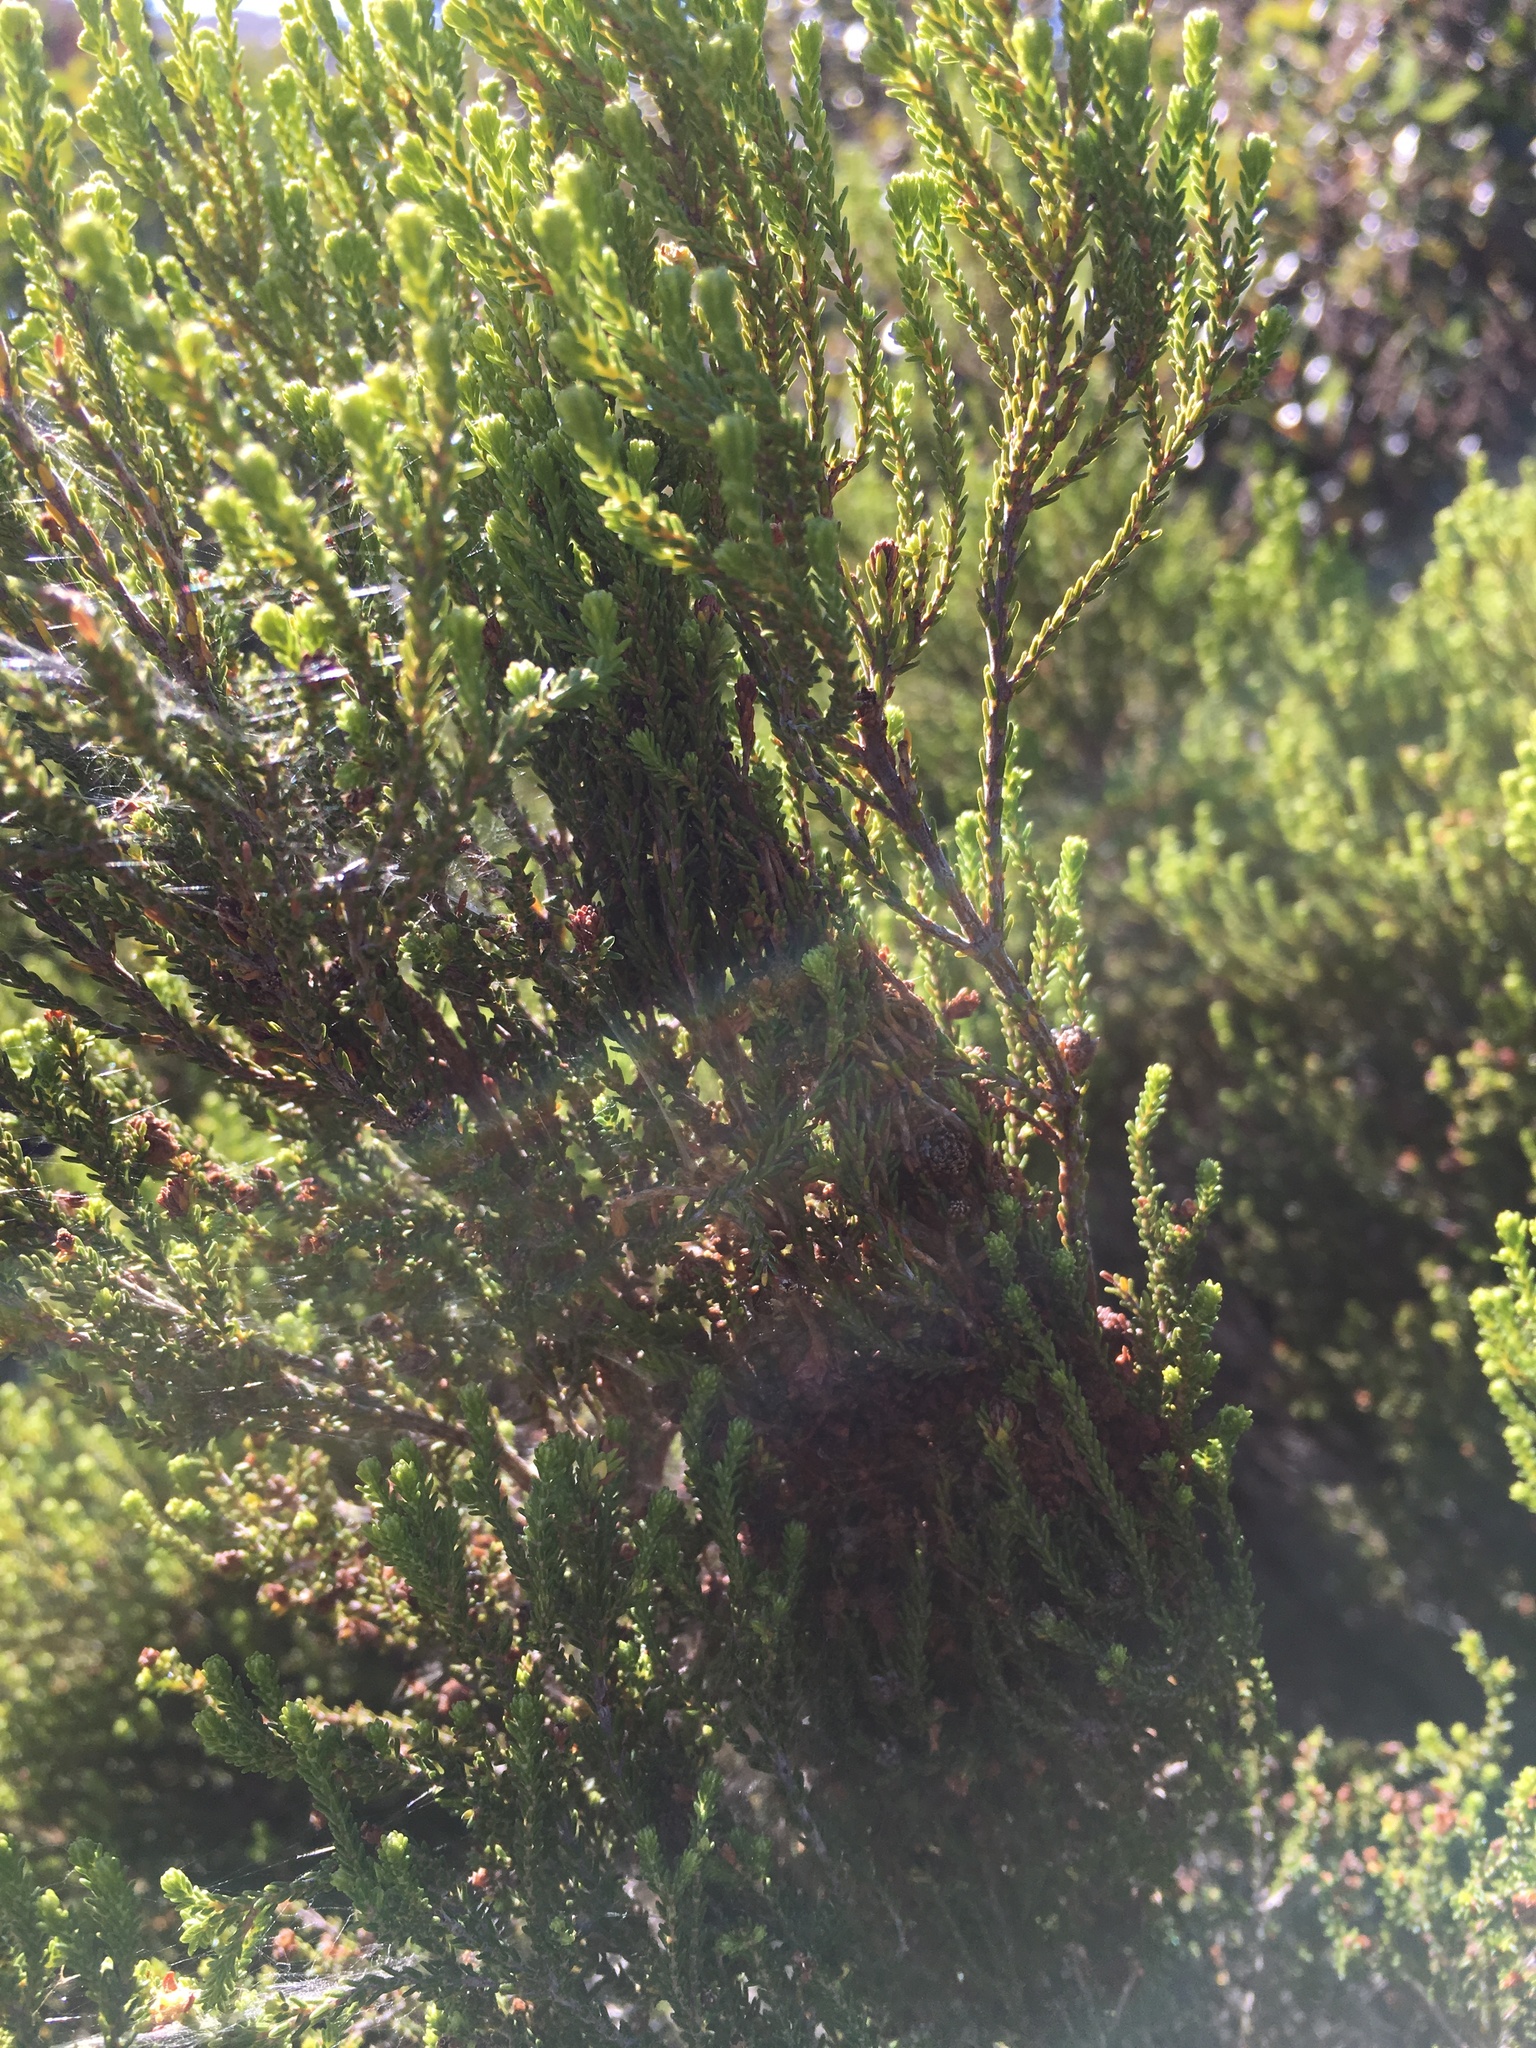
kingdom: Plantae
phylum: Tracheophyta
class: Magnoliopsida
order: Malvales
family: Thymelaeaceae
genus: Passerina
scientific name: Passerina corymbosa
